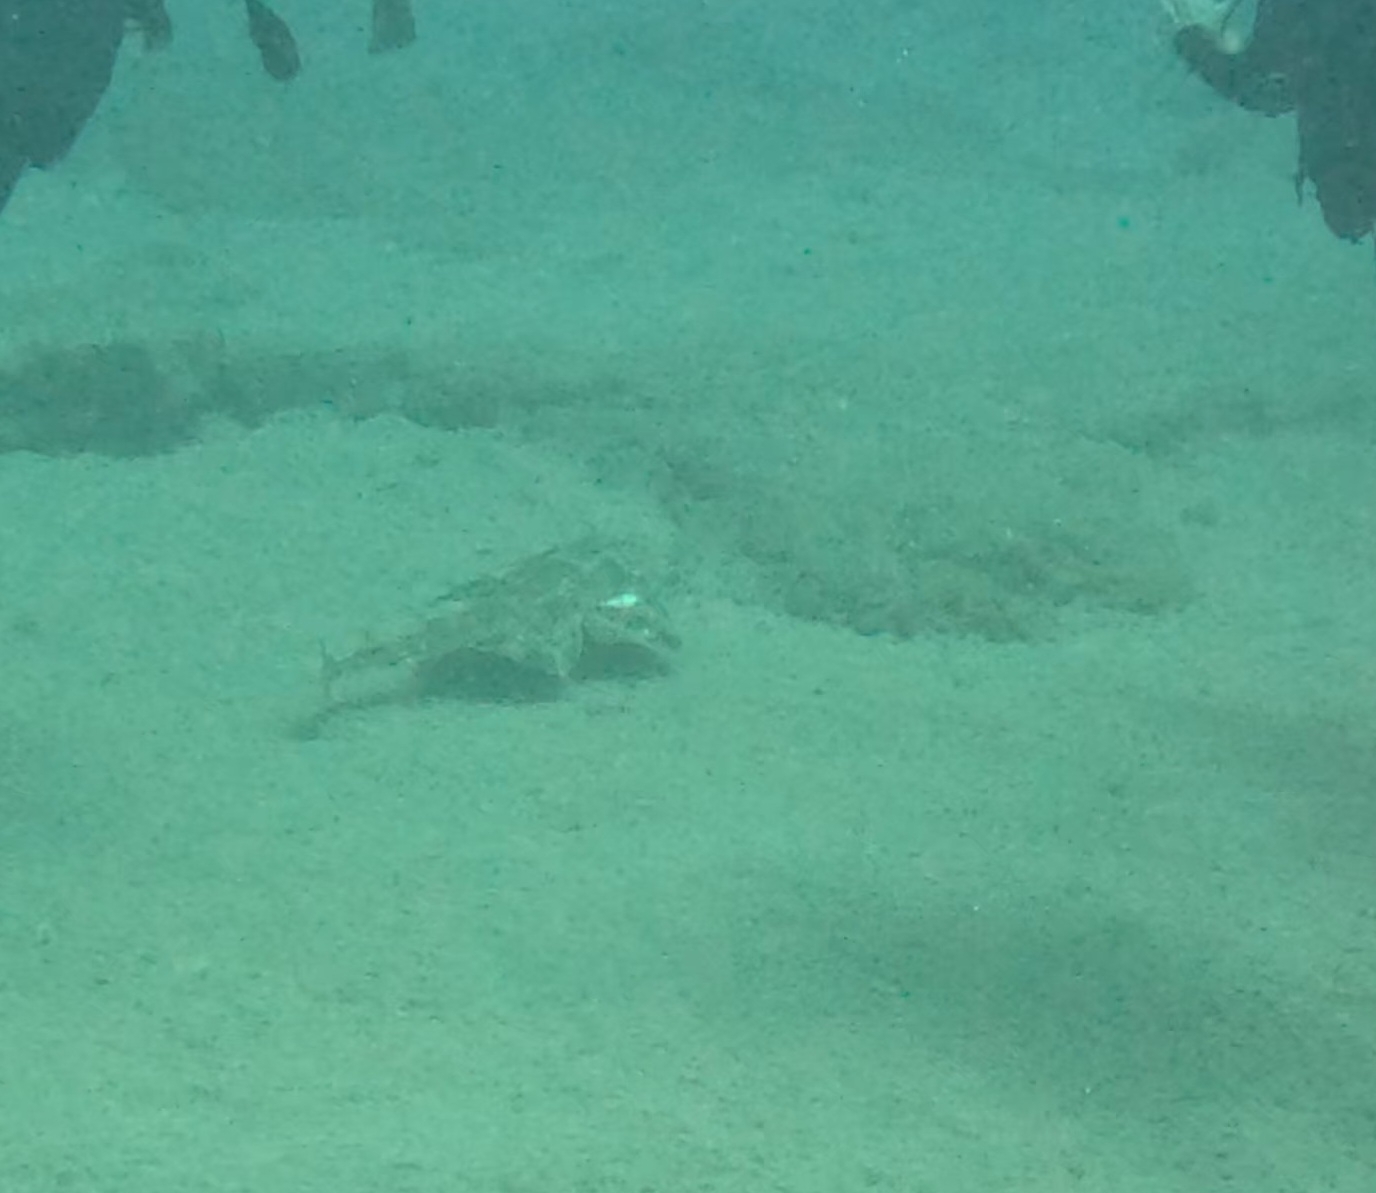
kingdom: Animalia
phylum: Chordata
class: Elasmobranchii
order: Squatiniformes
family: Squatinidae
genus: Squatina
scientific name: Squatina squatina
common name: Angel shark
